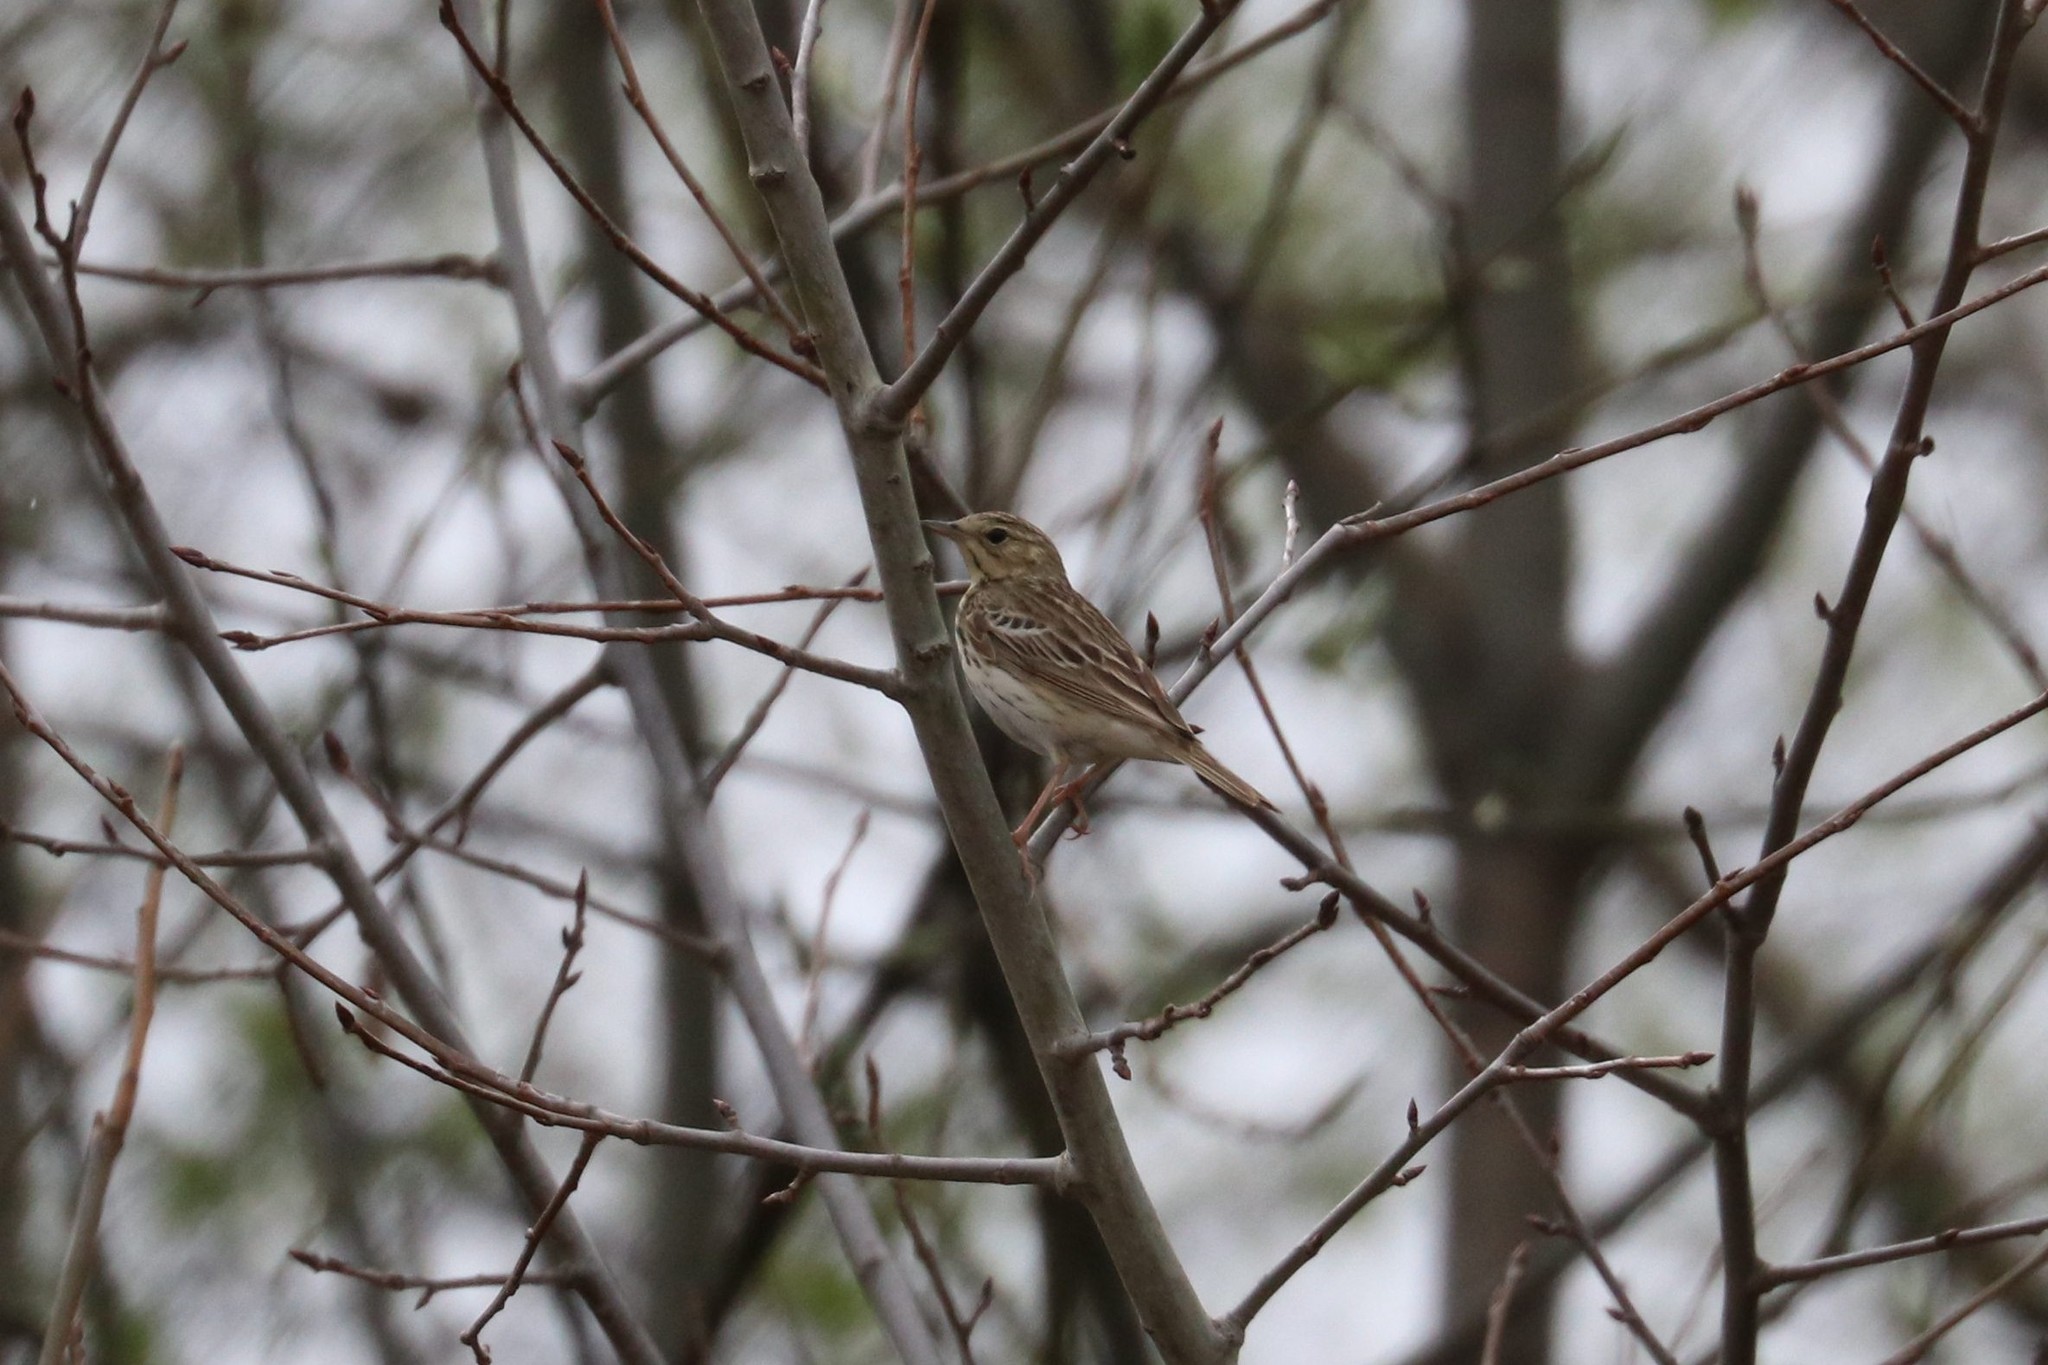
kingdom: Animalia
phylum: Chordata
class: Aves
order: Passeriformes
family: Motacillidae
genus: Anthus
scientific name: Anthus trivialis
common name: Tree pipit
